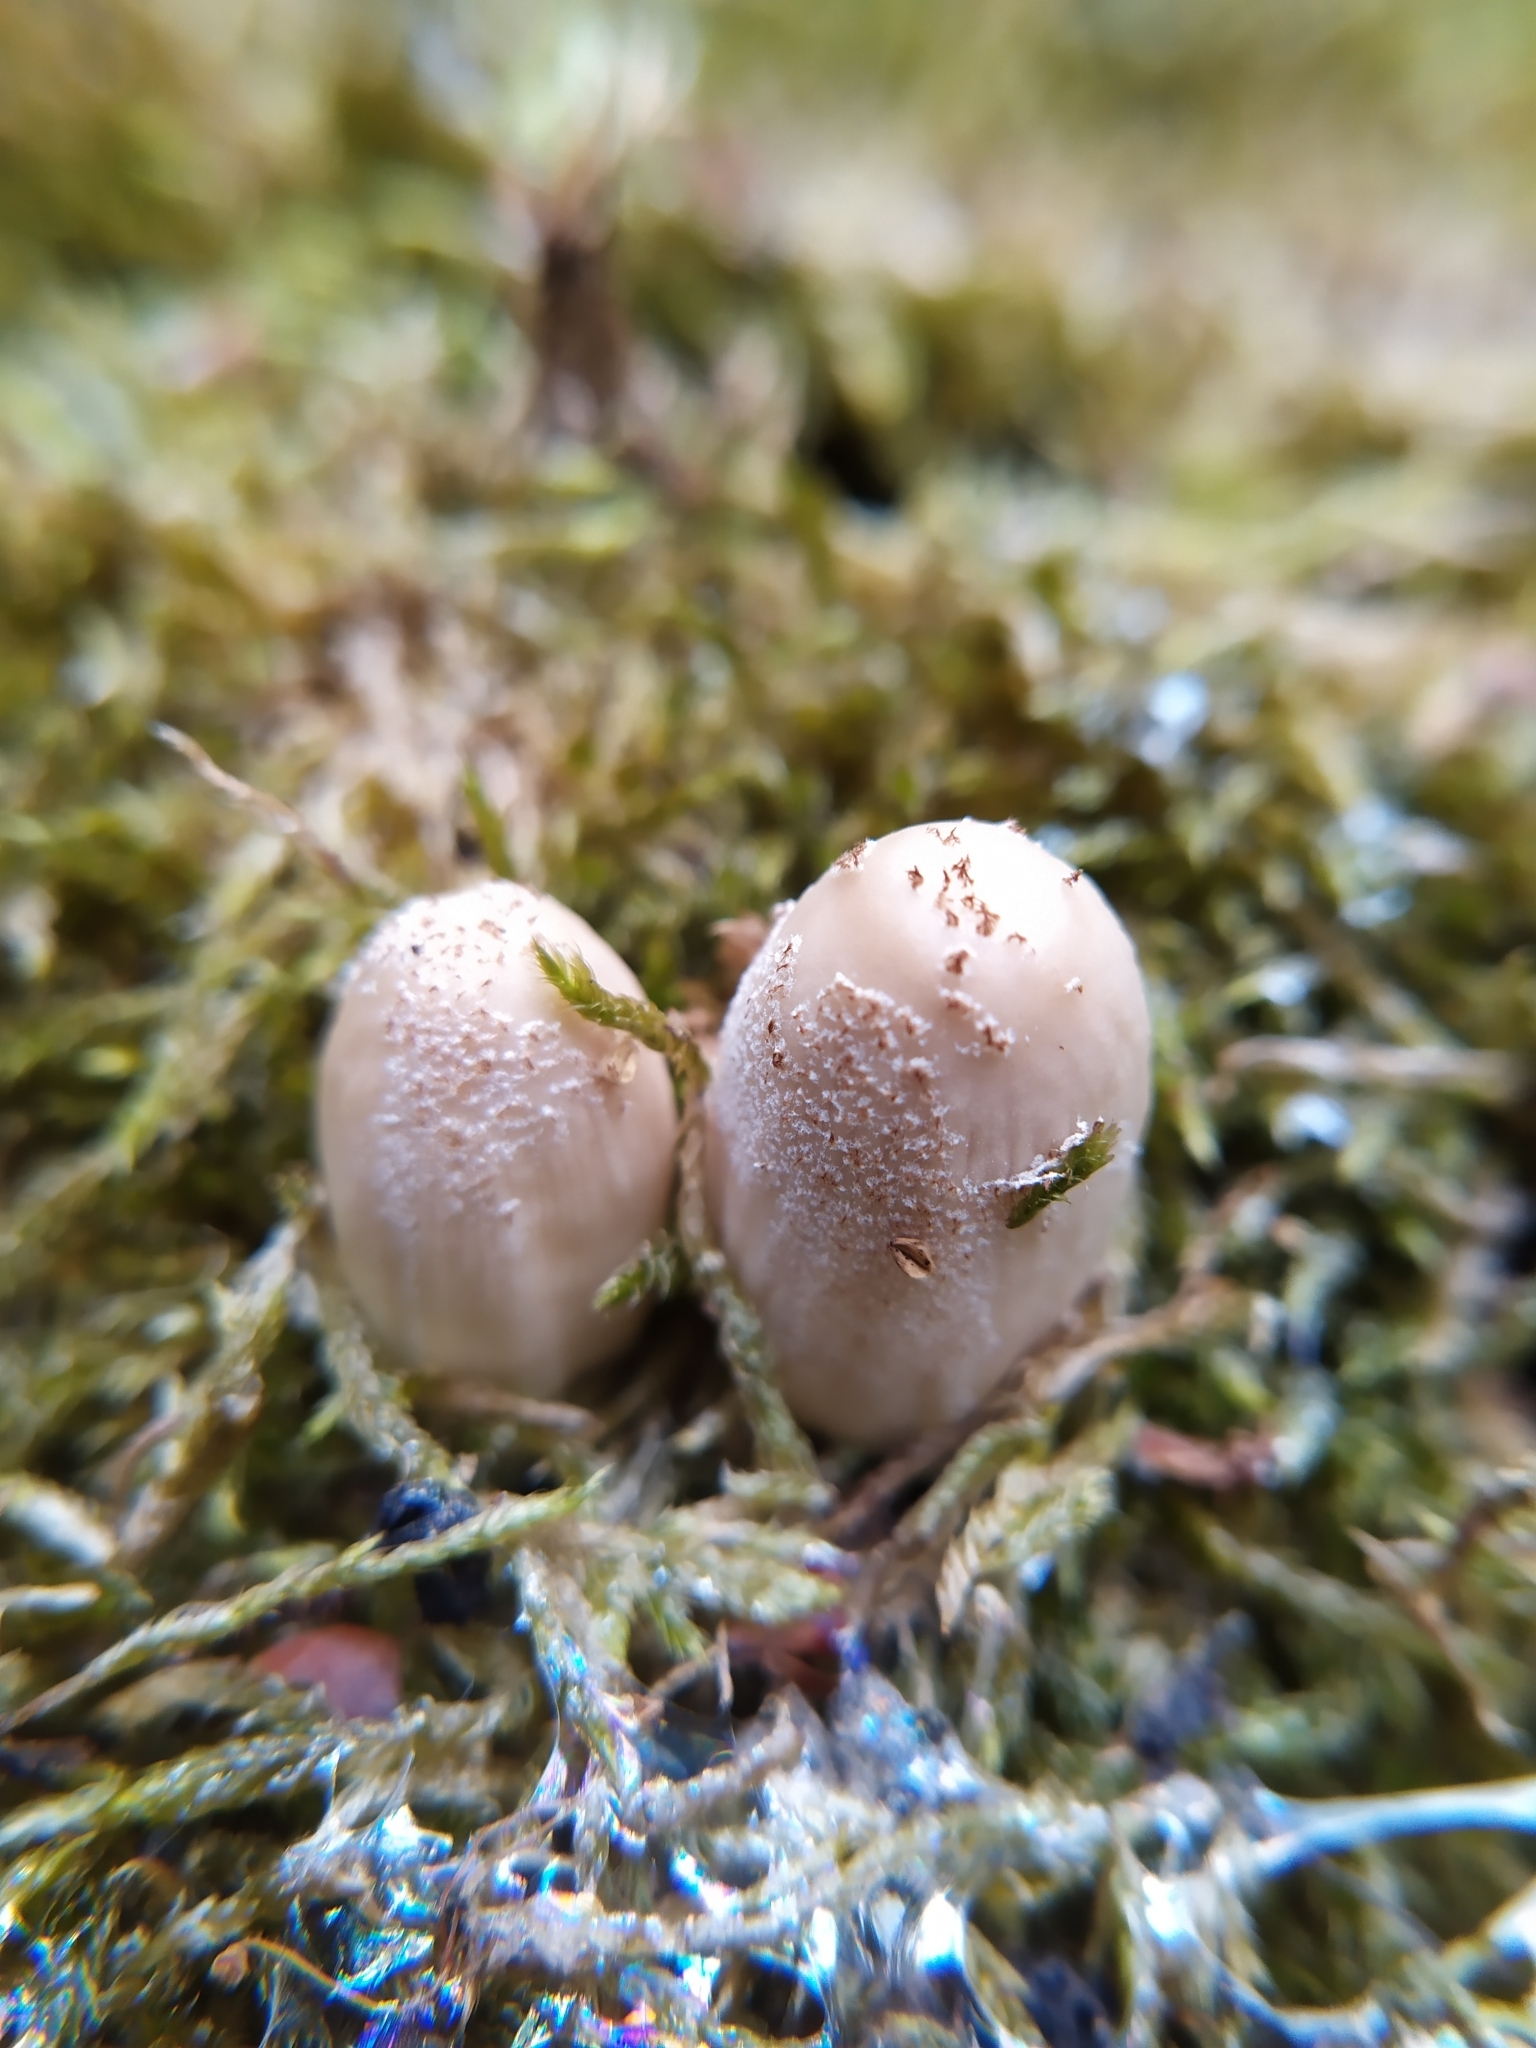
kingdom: Fungi
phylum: Basidiomycota
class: Agaricomycetes
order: Agaricales
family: Psathyrellaceae
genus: Coprinellus
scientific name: Coprinellus domesticus
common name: Firerug inkcap
